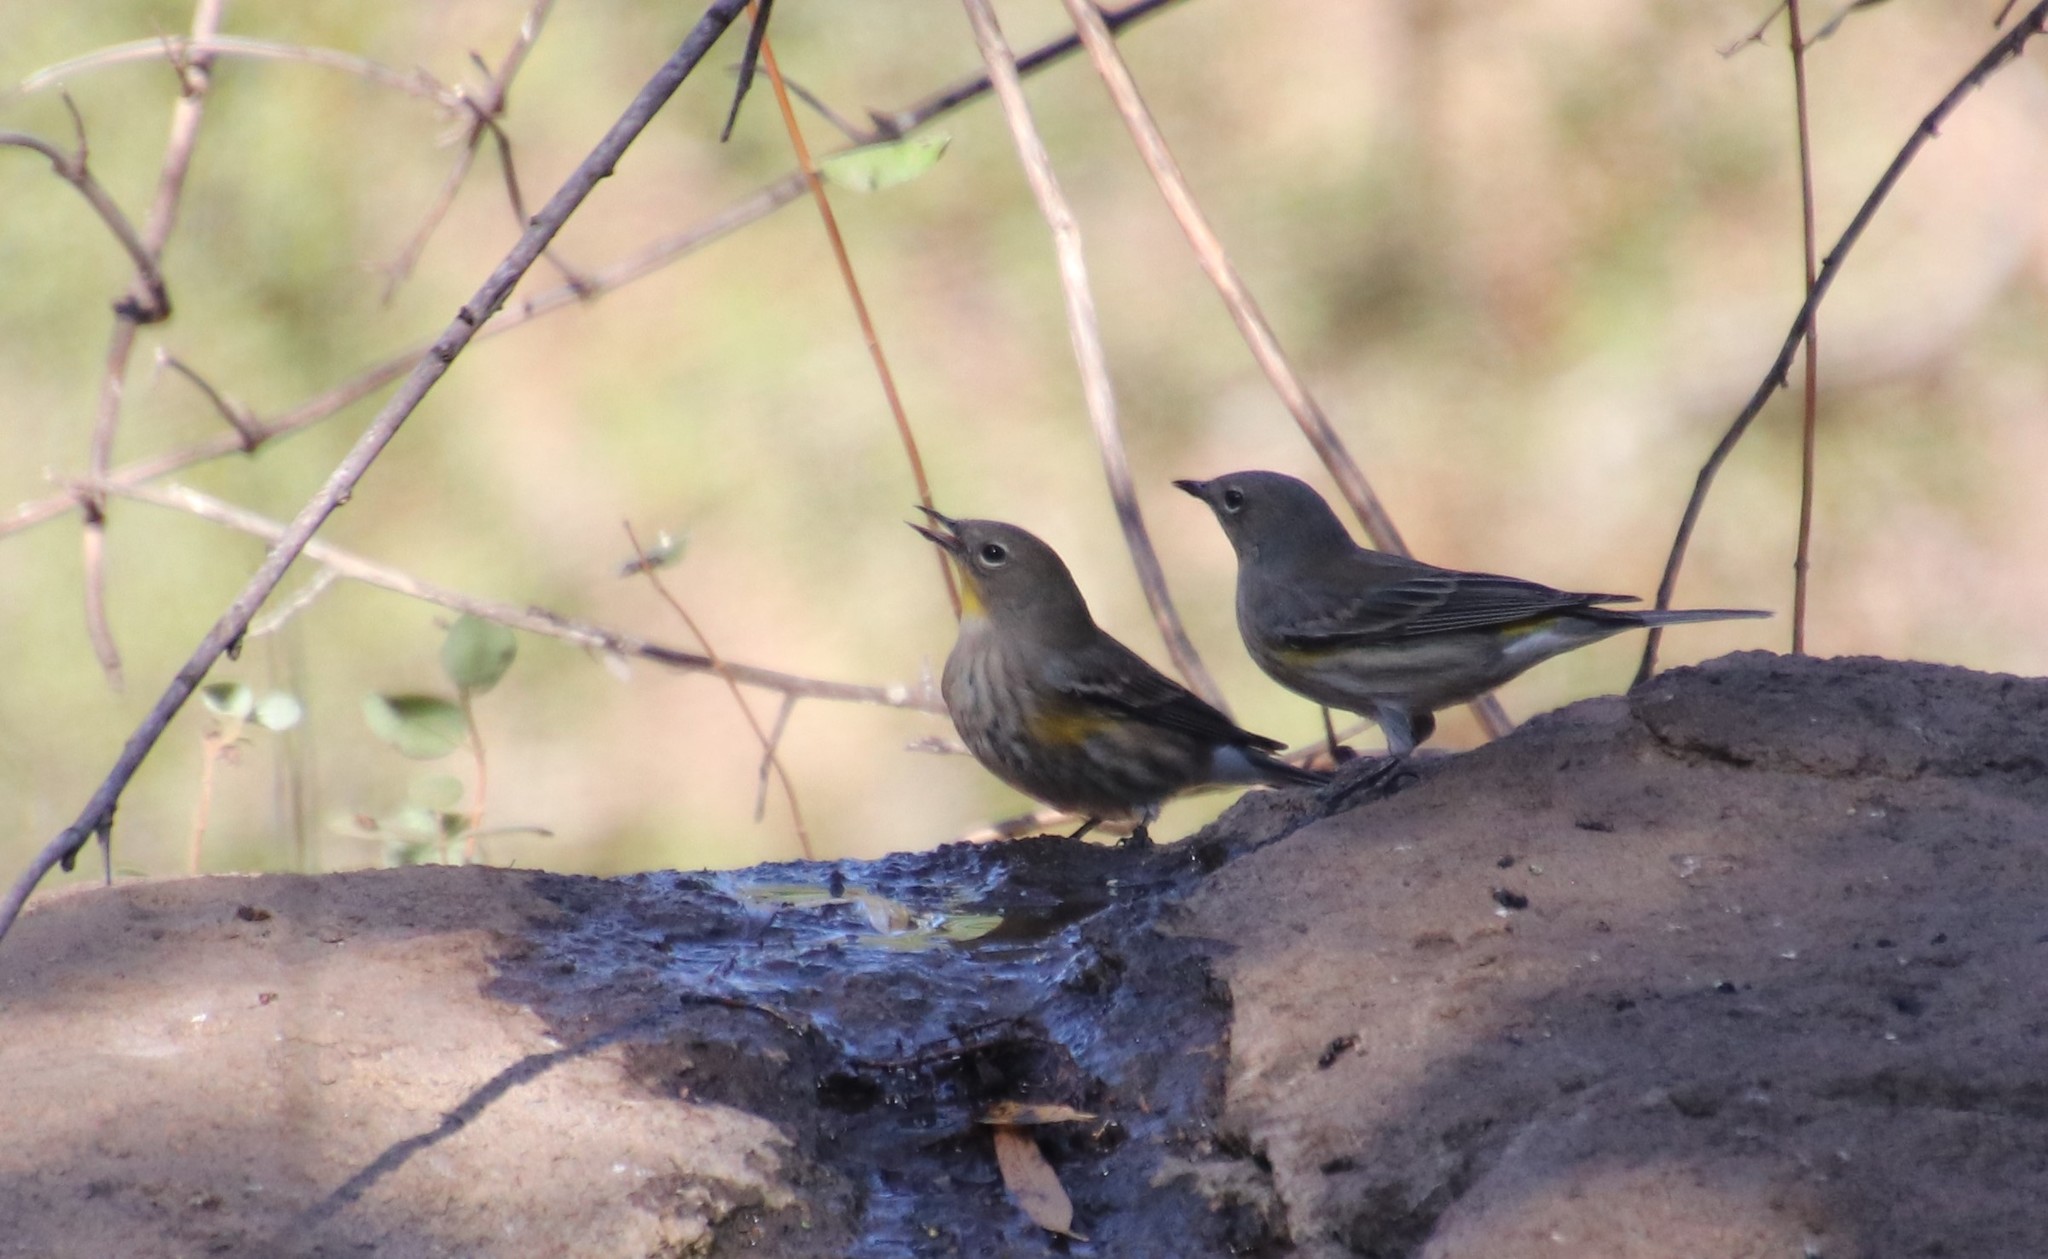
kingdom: Animalia
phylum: Chordata
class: Aves
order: Passeriformes
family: Parulidae
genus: Setophaga
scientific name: Setophaga auduboni
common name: Audubon's warbler
